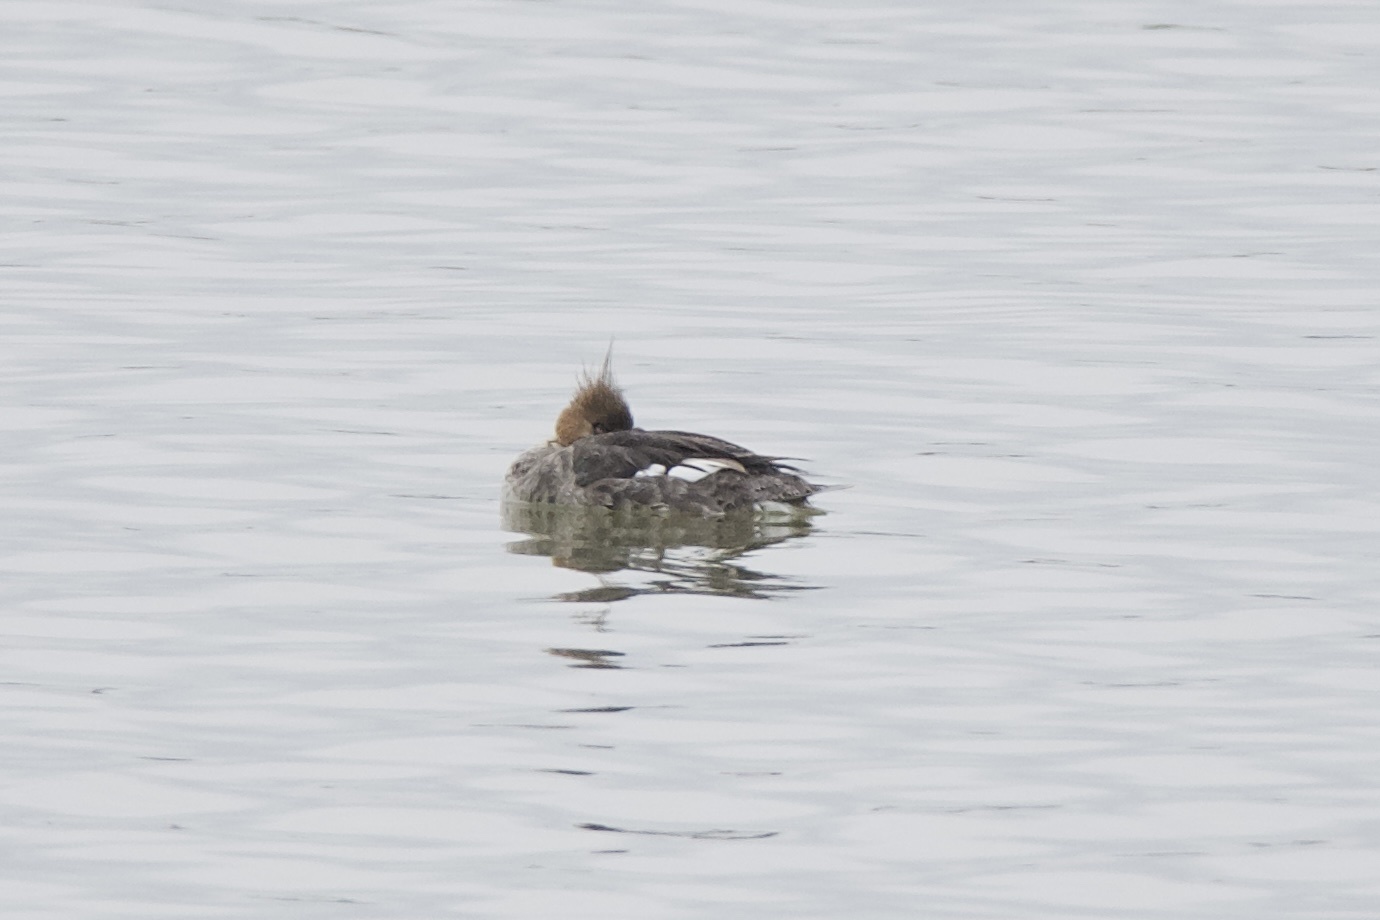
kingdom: Animalia
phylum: Chordata
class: Aves
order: Anseriformes
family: Anatidae
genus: Mergus
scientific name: Mergus serrator
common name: Red-breasted merganser
